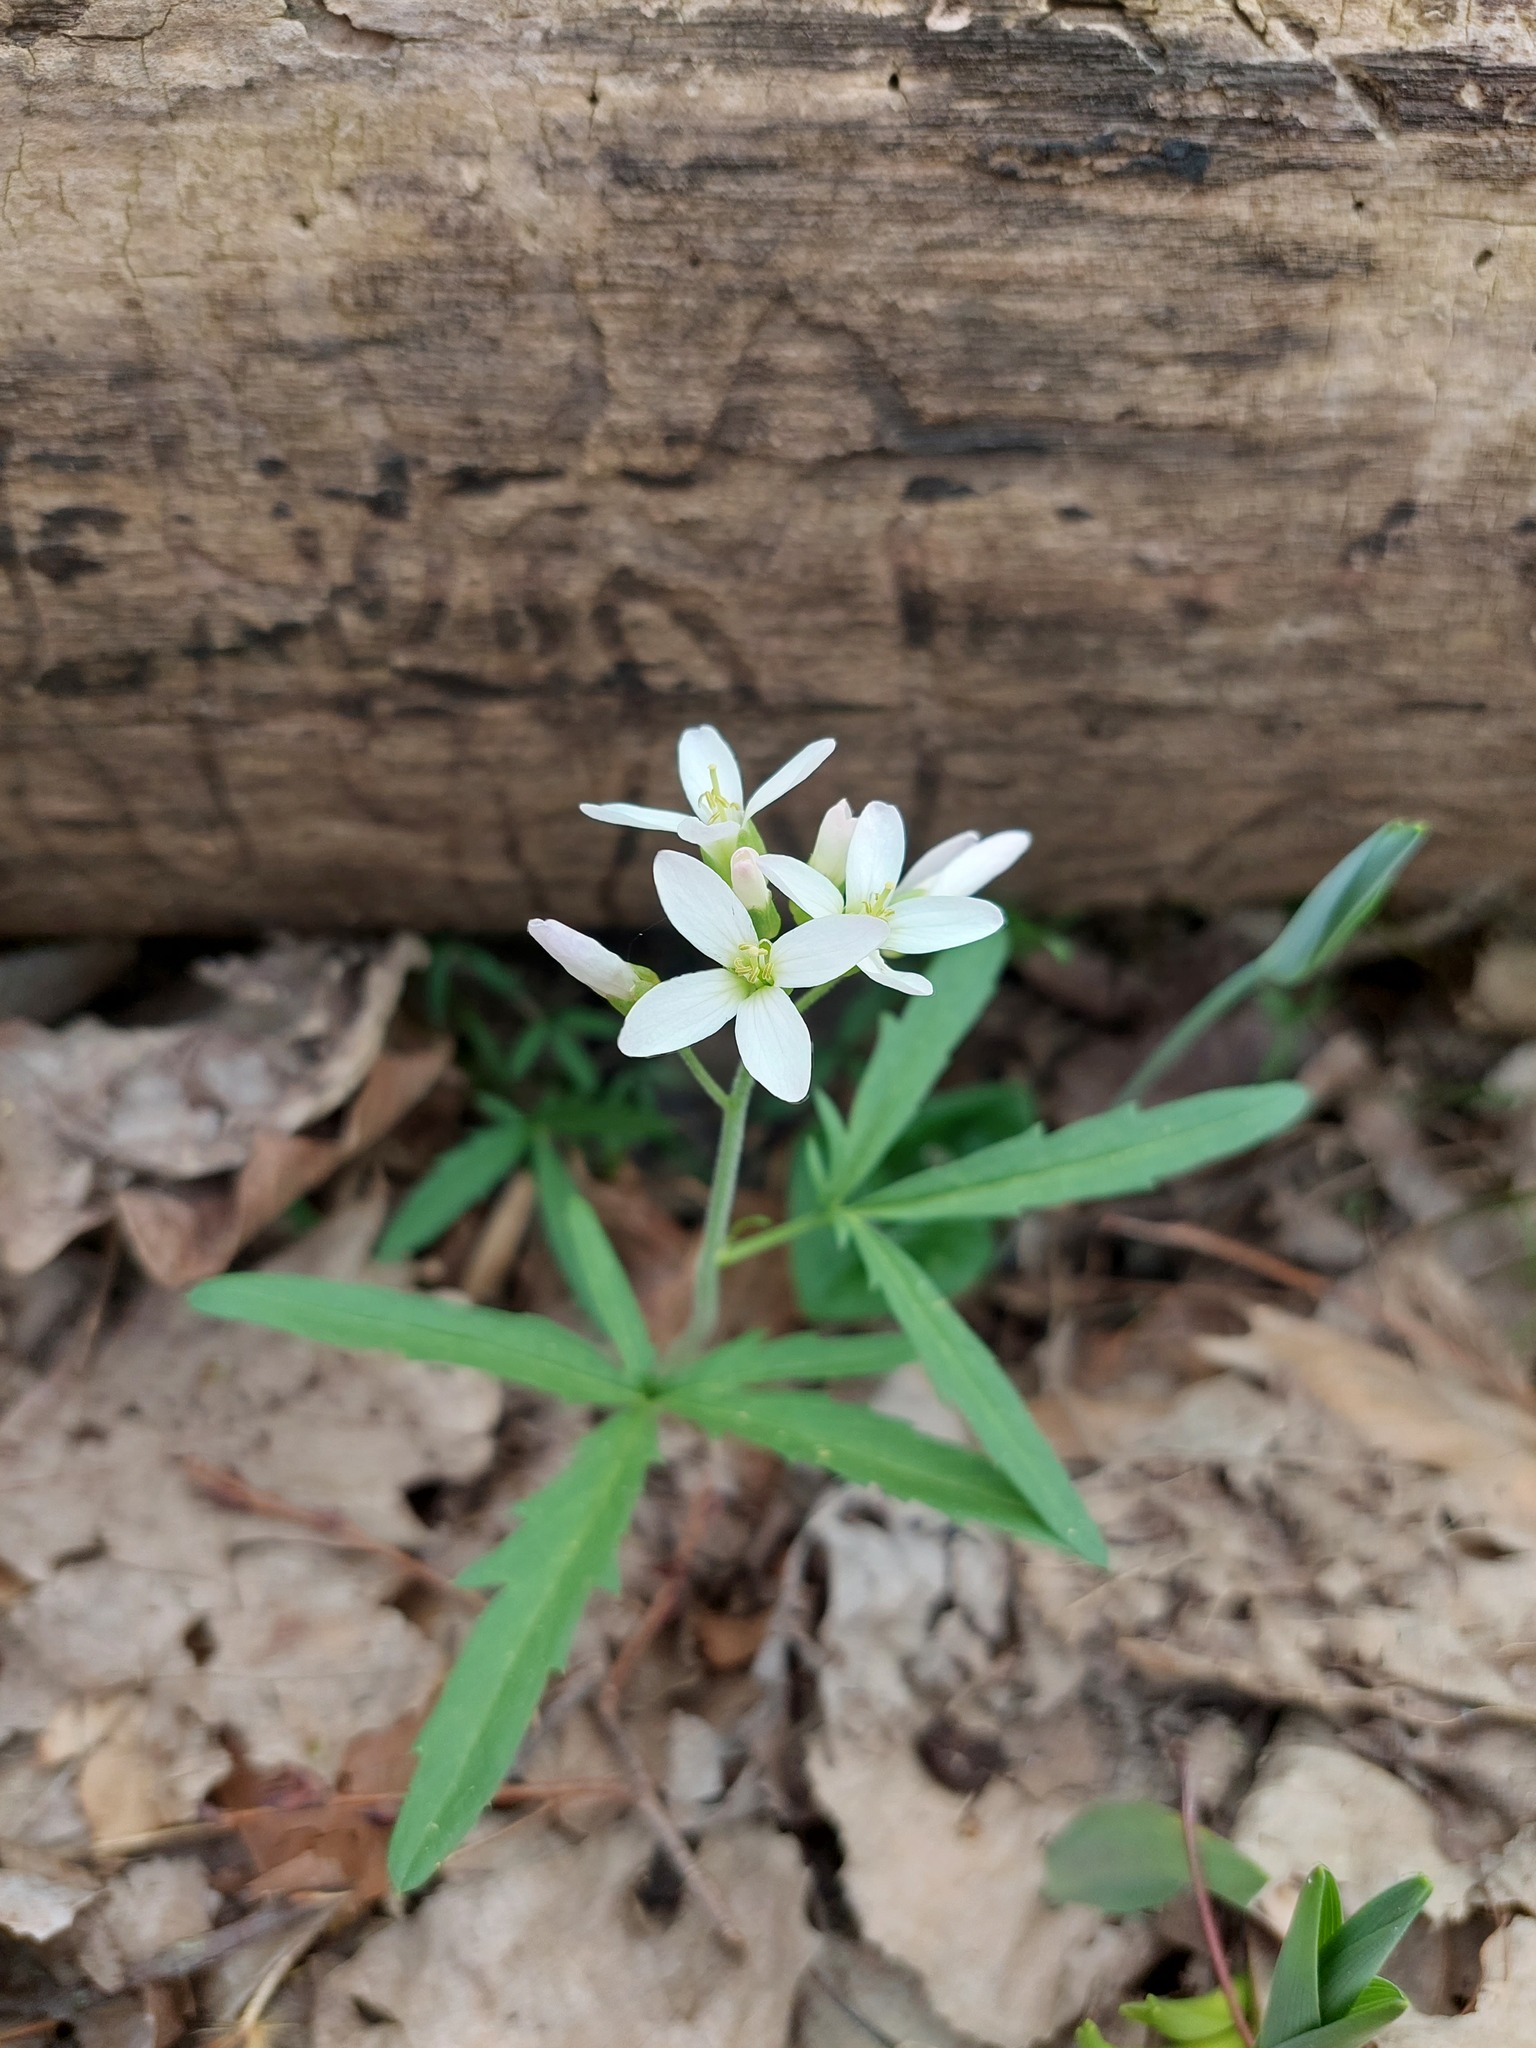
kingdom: Plantae
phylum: Tracheophyta
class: Magnoliopsida
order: Brassicales
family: Brassicaceae
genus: Cardamine
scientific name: Cardamine concatenata
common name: Cut-leaf toothcup
